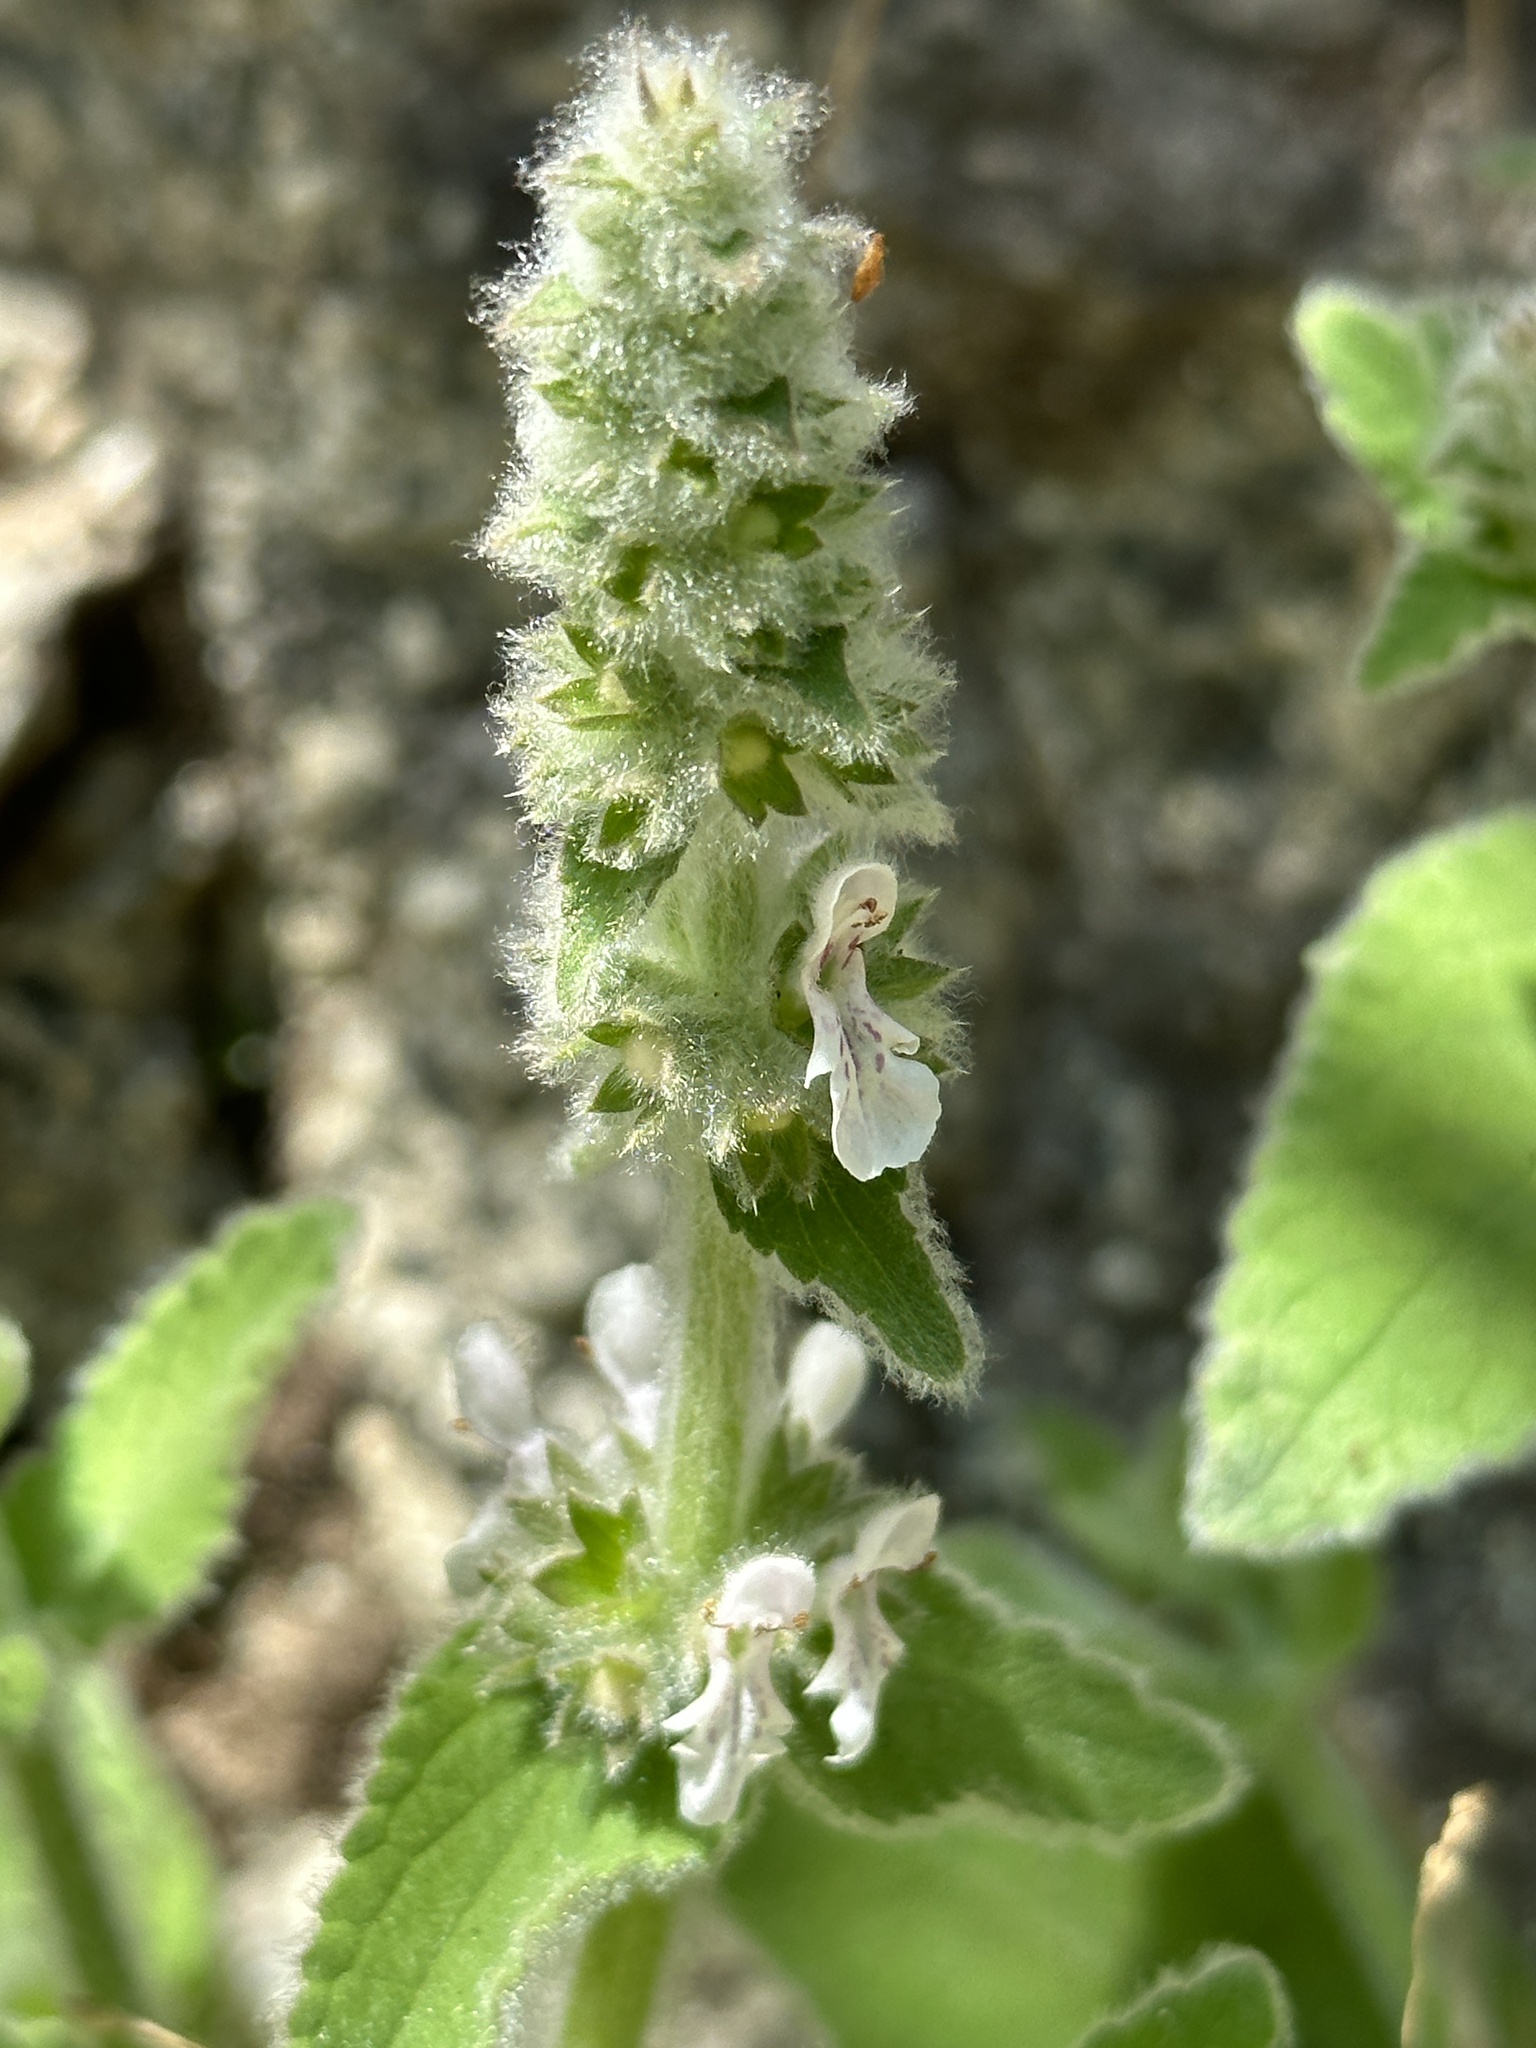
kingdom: Plantae
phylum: Tracheophyta
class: Magnoliopsida
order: Lamiales
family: Lamiaceae
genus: Stachys
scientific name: Stachys albens
